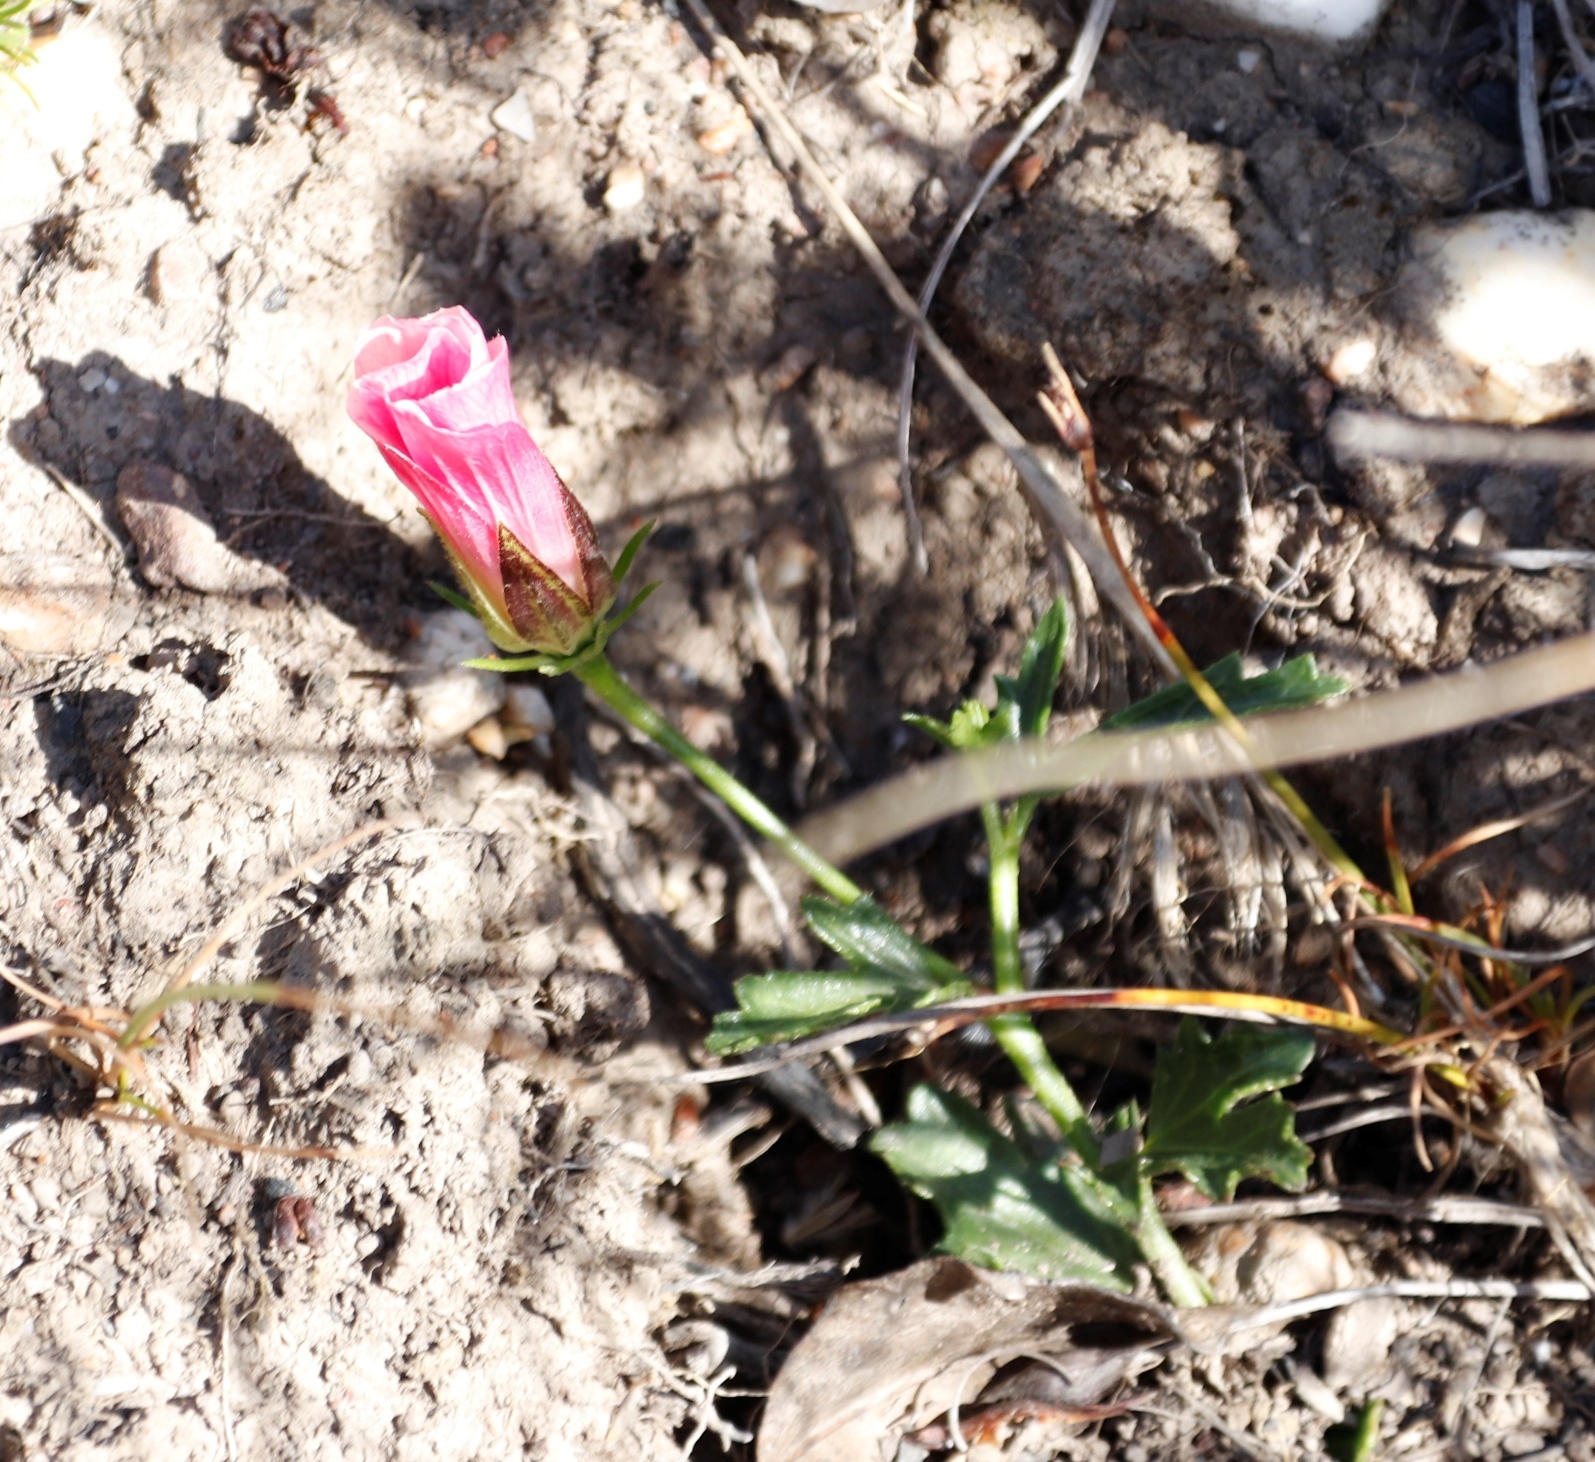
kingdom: Plantae
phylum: Tracheophyta
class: Magnoliopsida
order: Malvales
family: Malvaceae
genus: Hibiscus
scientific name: Hibiscus pusillus
